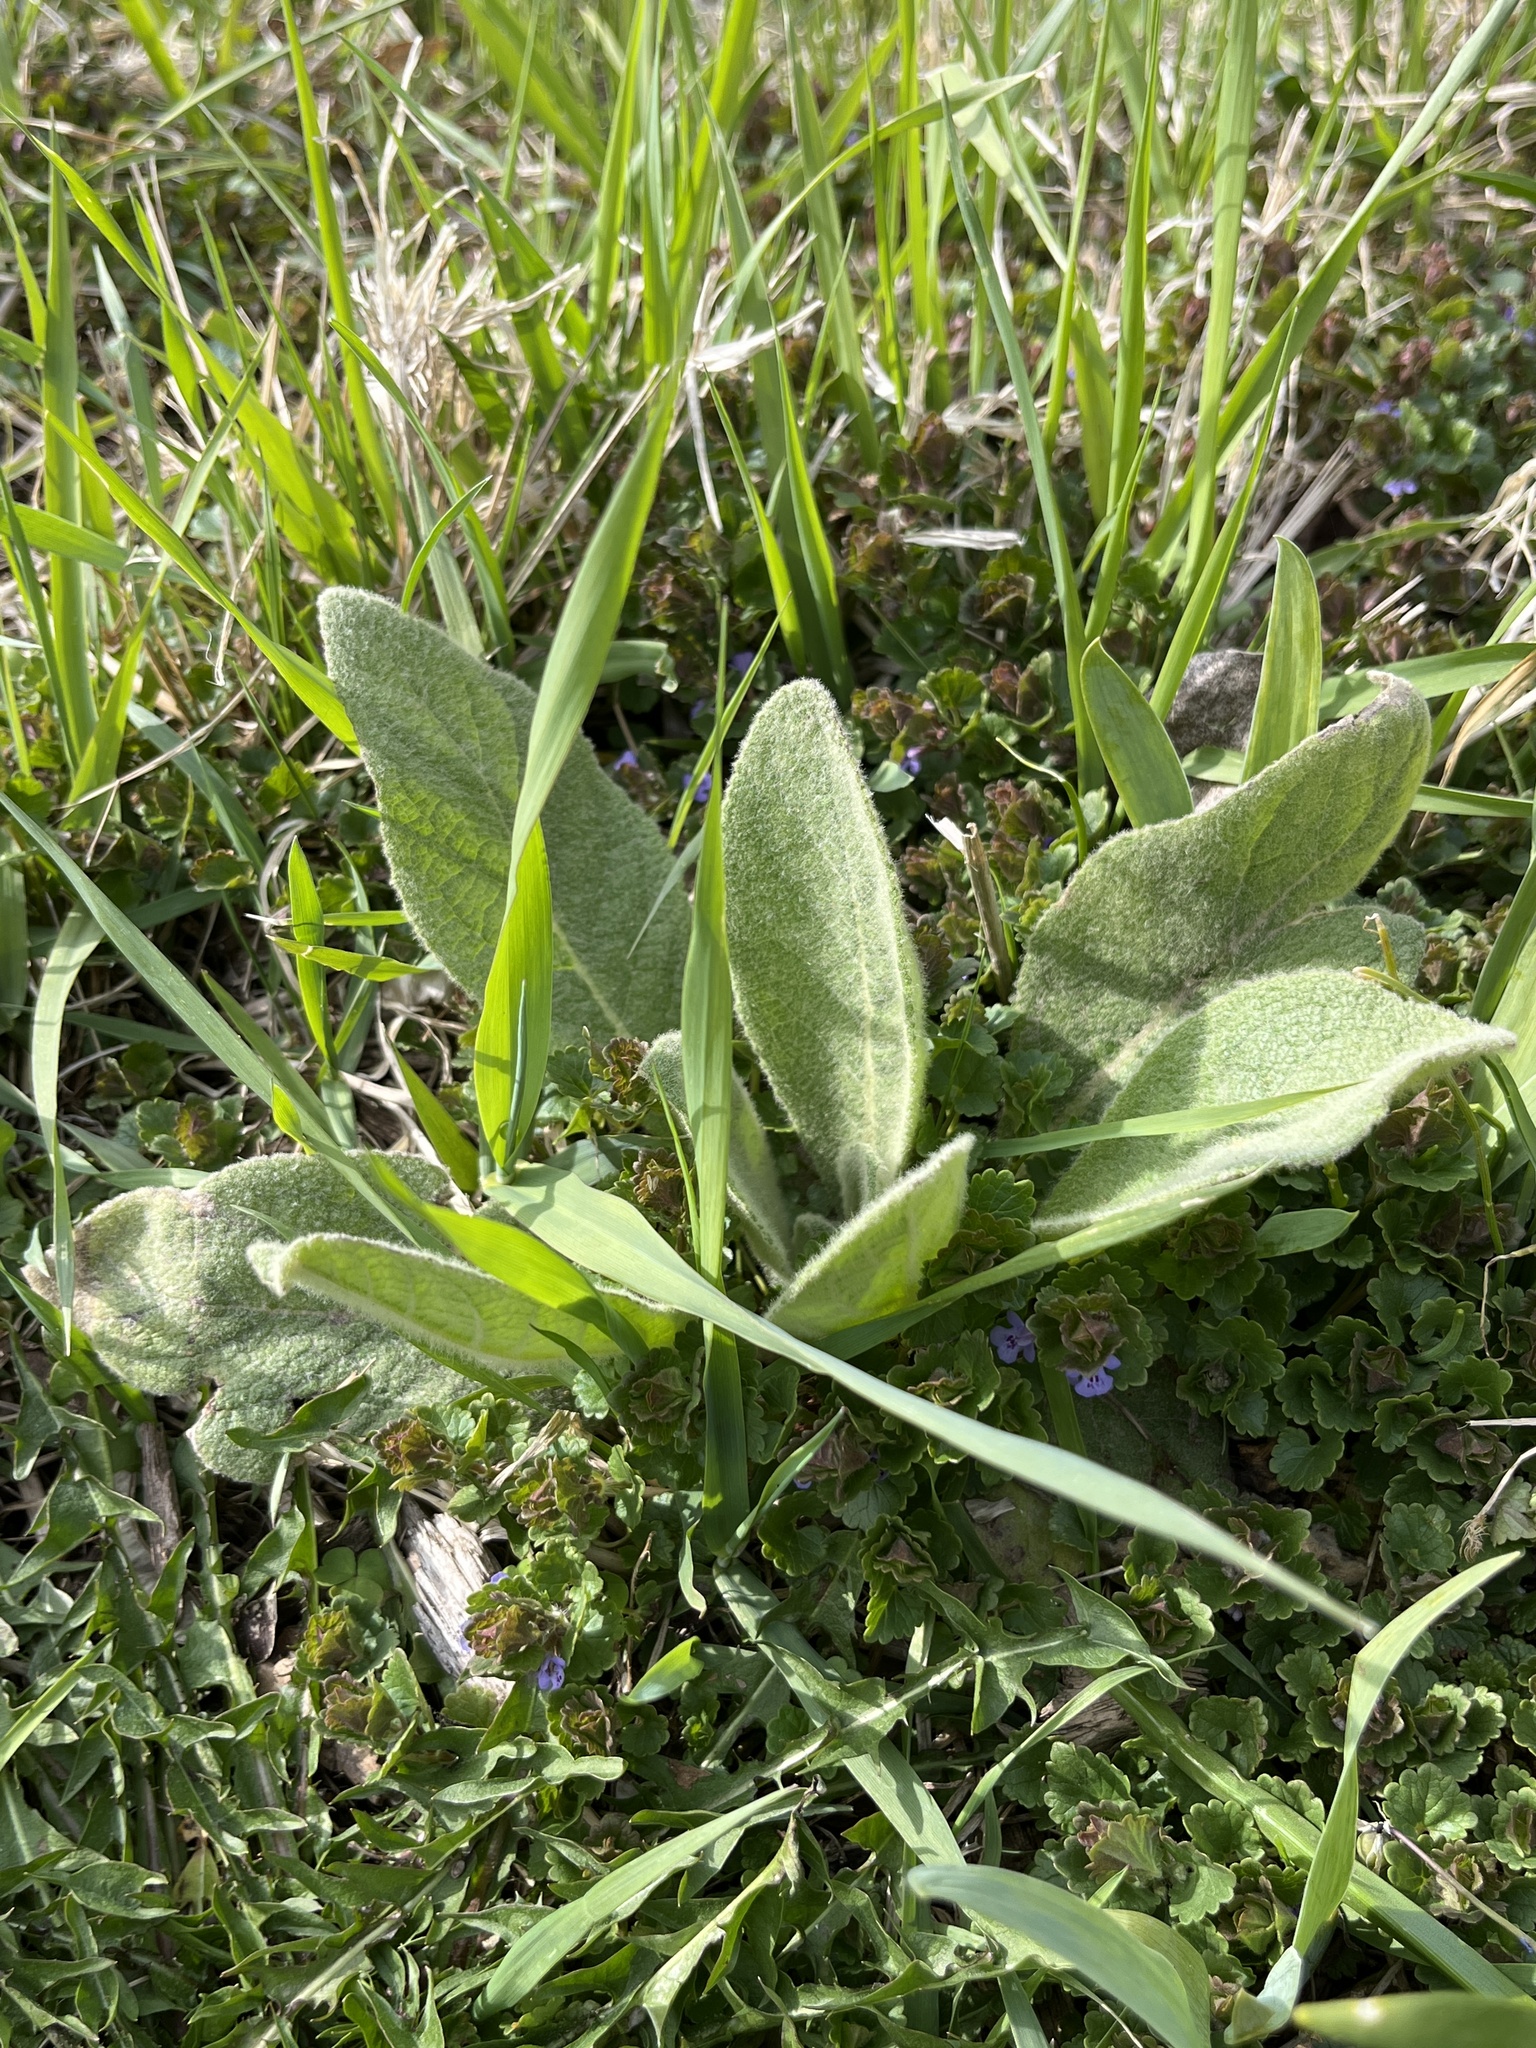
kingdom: Plantae
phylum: Tracheophyta
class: Magnoliopsida
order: Lamiales
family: Scrophulariaceae
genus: Verbascum
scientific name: Verbascum thapsus
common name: Common mullein
